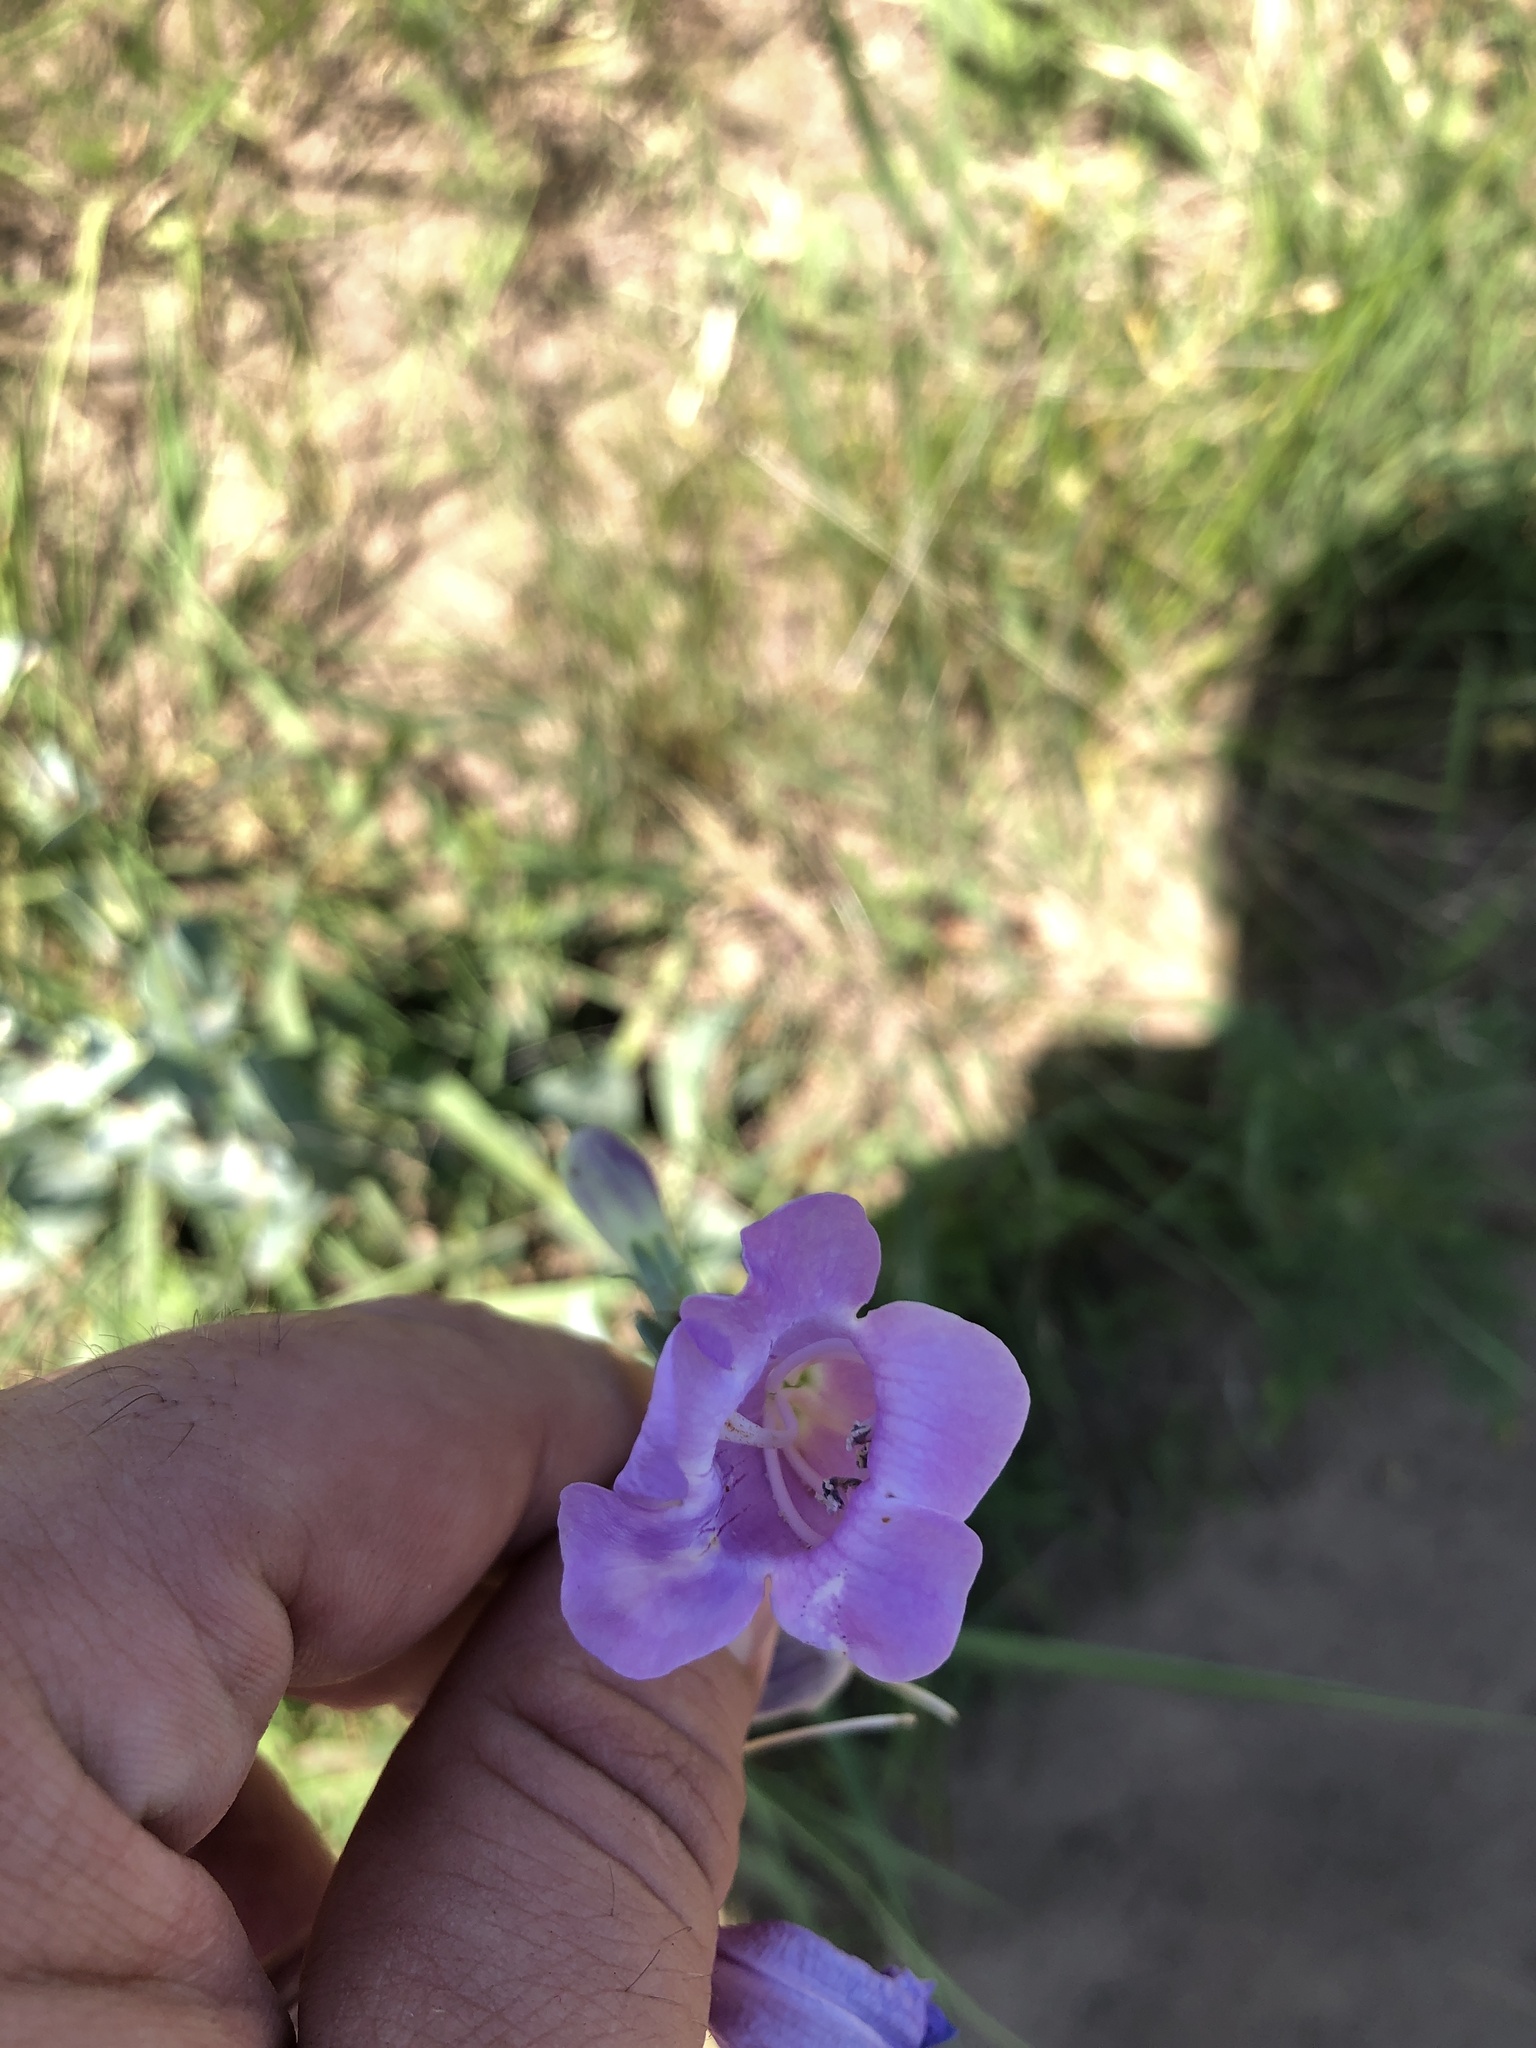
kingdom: Plantae
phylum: Tracheophyta
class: Magnoliopsida
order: Lamiales
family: Plantaginaceae
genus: Penstemon
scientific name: Penstemon
